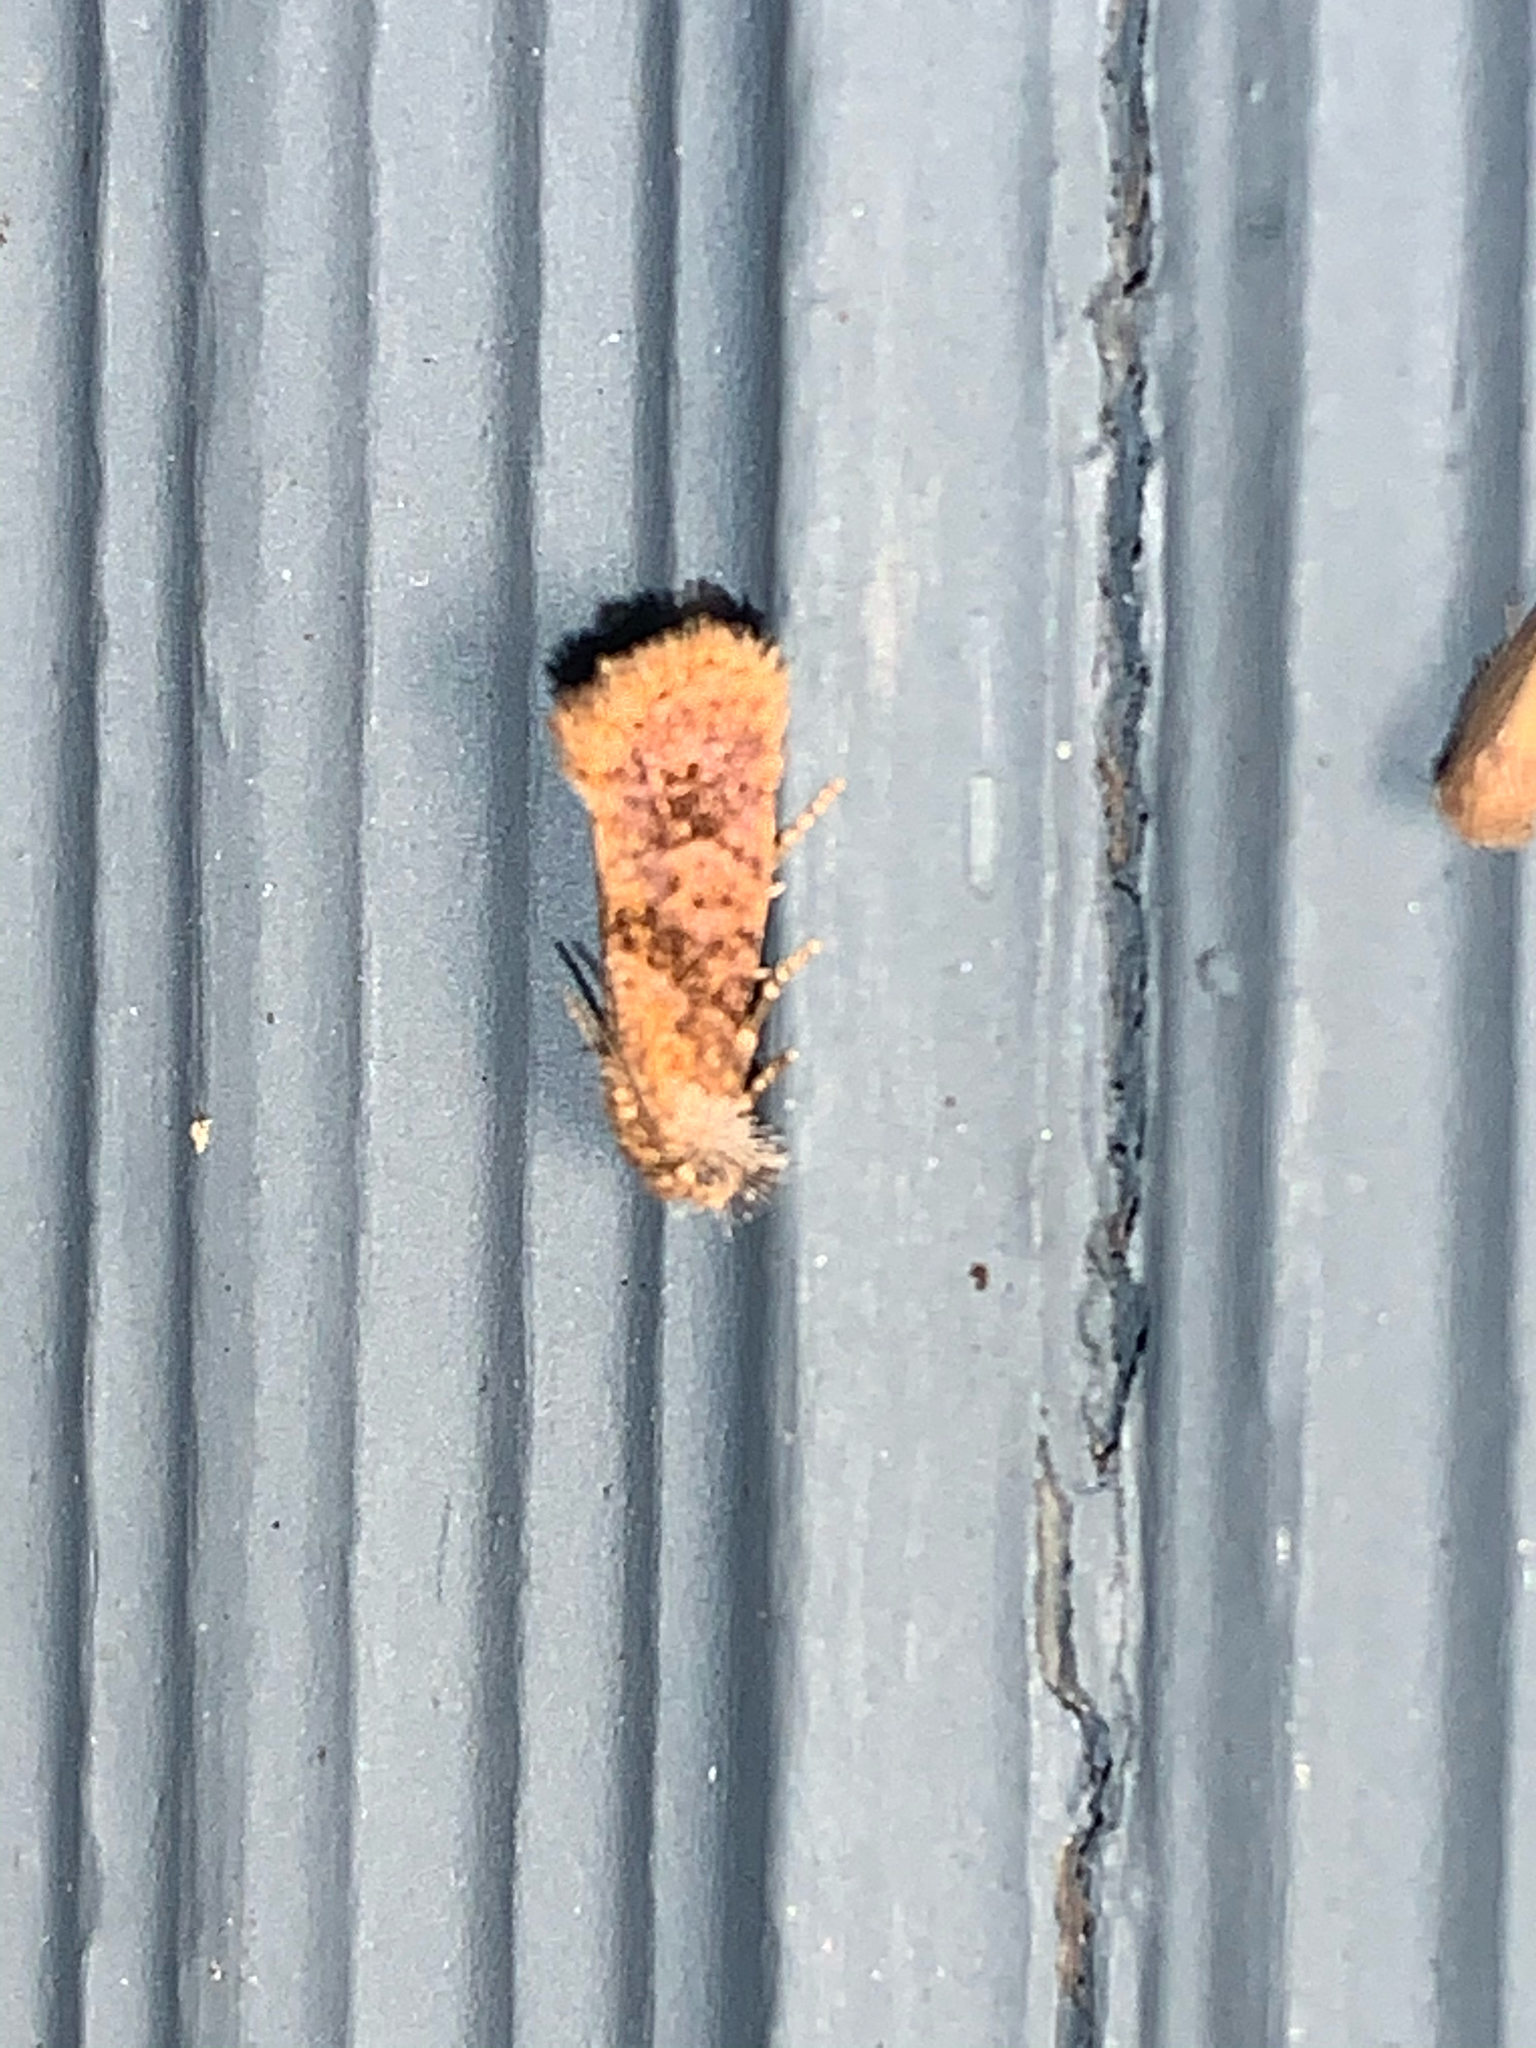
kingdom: Animalia
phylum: Arthropoda
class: Insecta
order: Lepidoptera
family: Tineidae
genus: Acrolophus
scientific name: Acrolophus panamae
